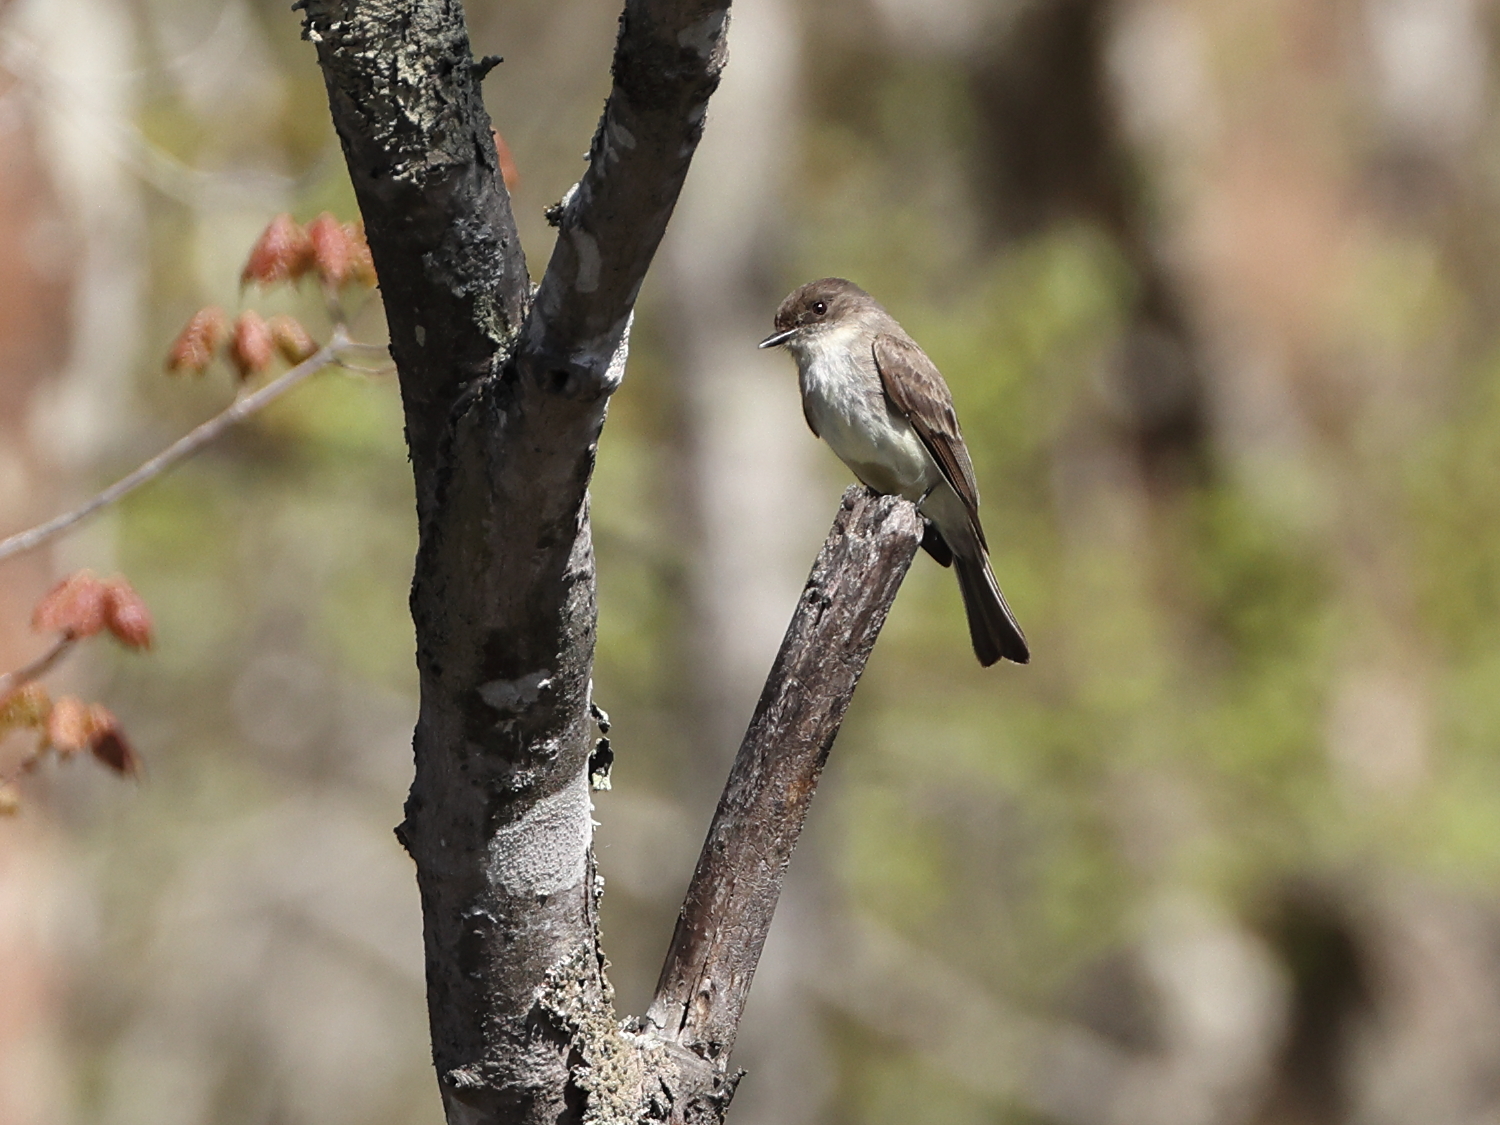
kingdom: Animalia
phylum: Chordata
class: Aves
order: Passeriformes
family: Tyrannidae
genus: Sayornis
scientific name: Sayornis phoebe
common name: Eastern phoebe
